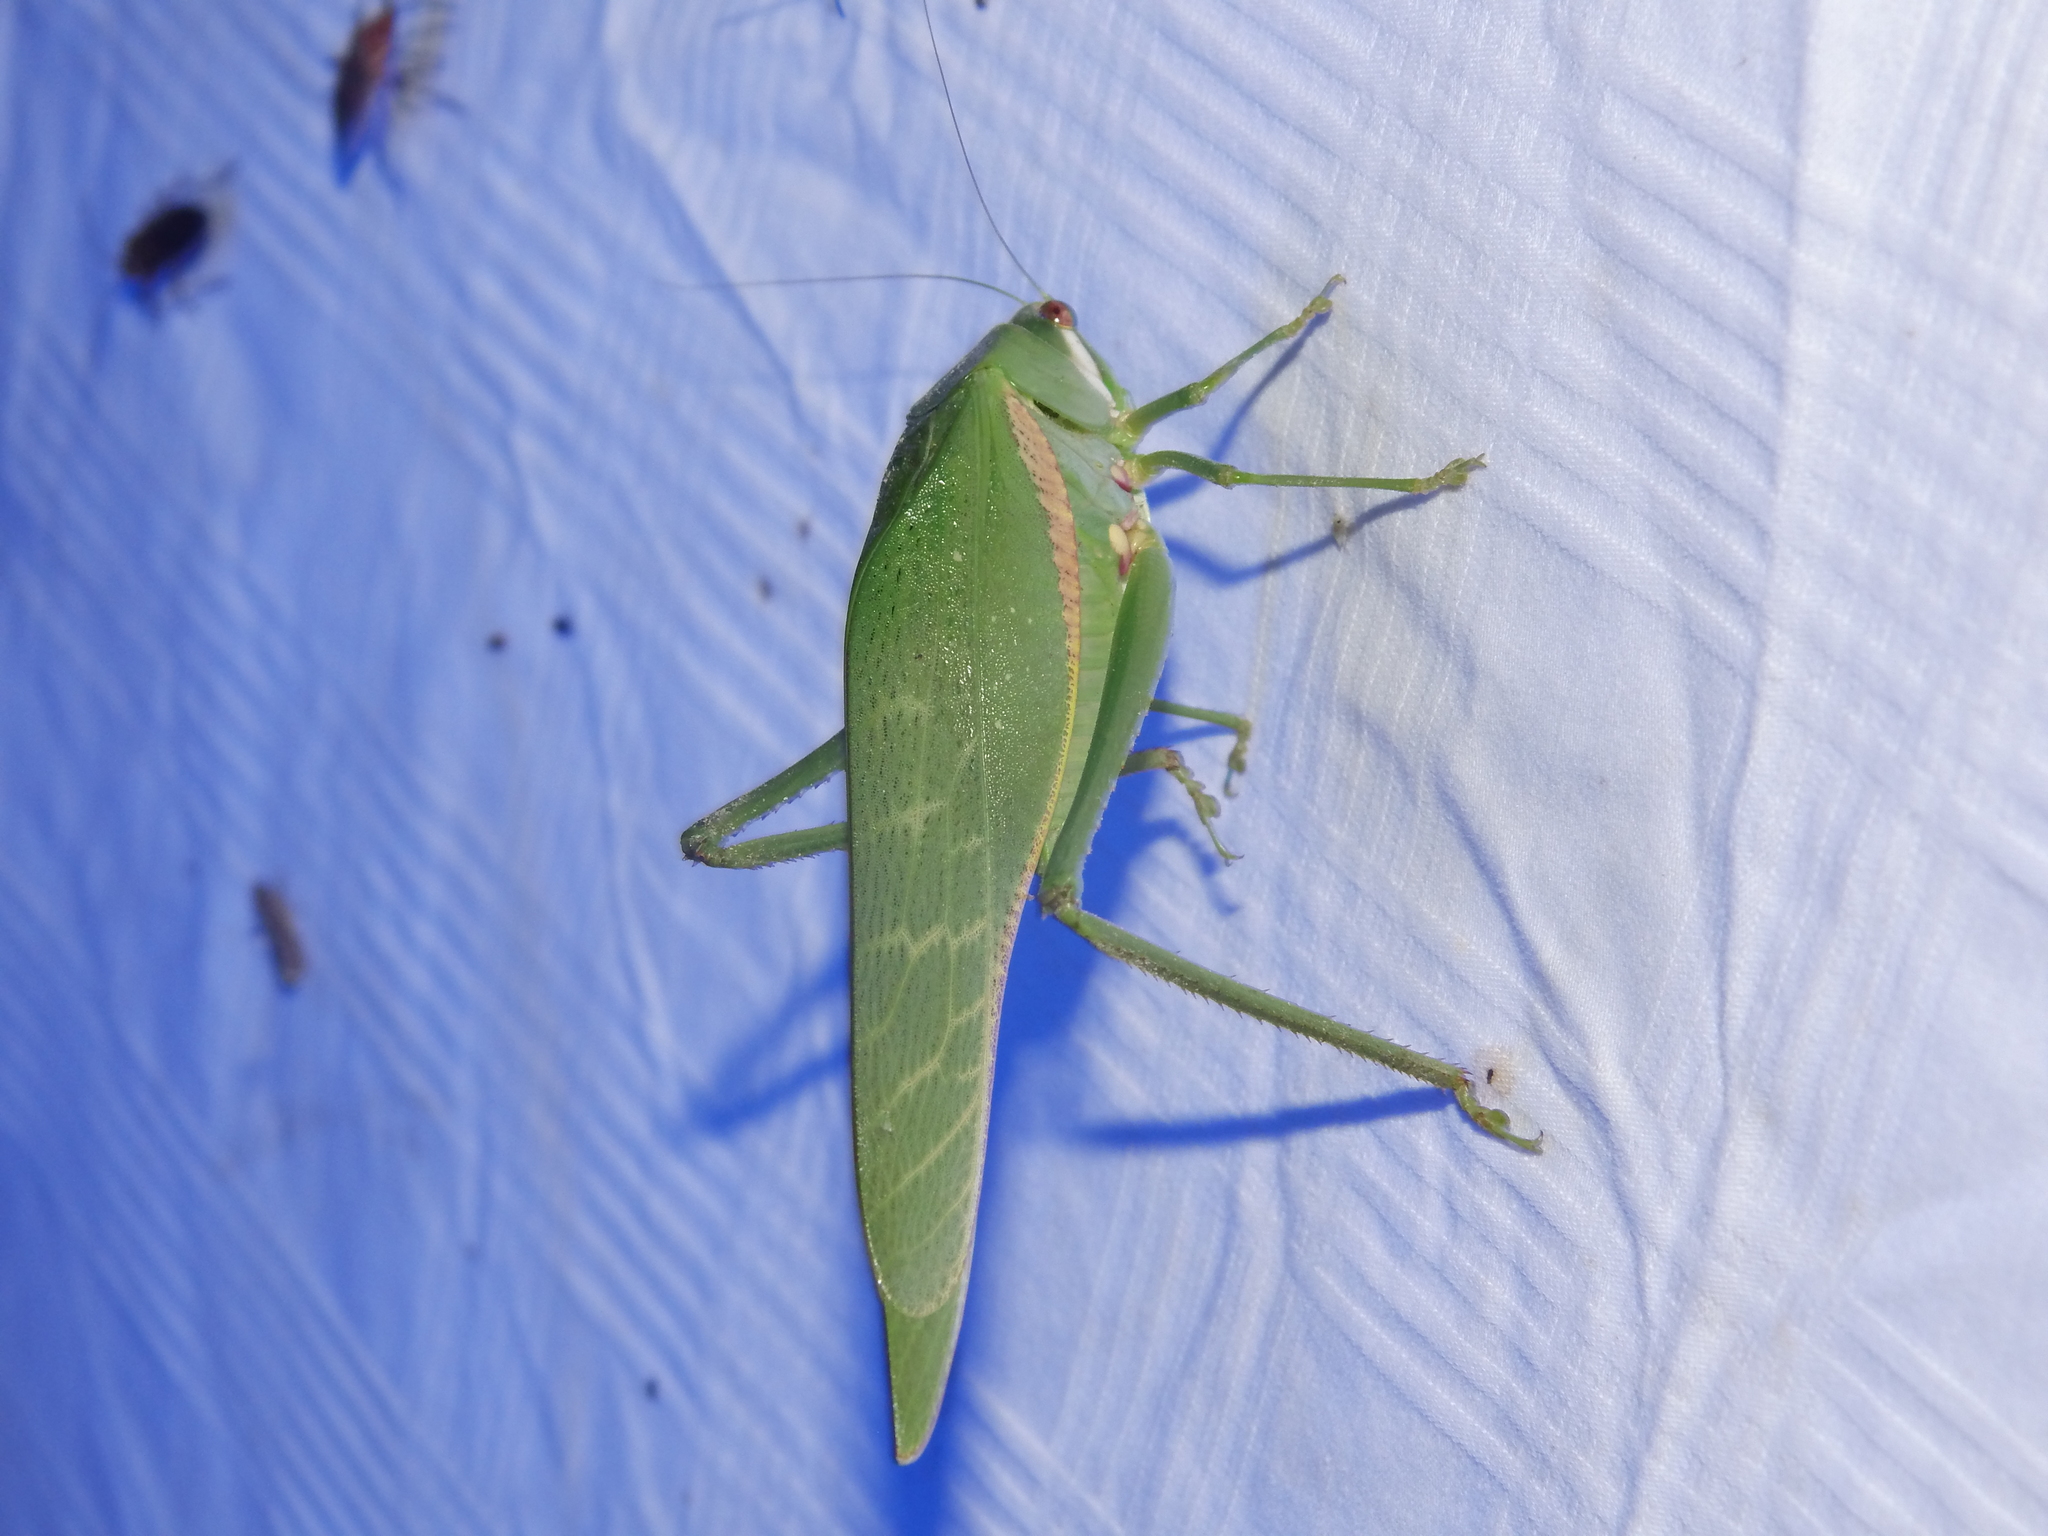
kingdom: Animalia
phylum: Arthropoda
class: Insecta
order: Orthoptera
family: Tettigoniidae
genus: Philophyllia
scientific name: Philophyllia guttulata
